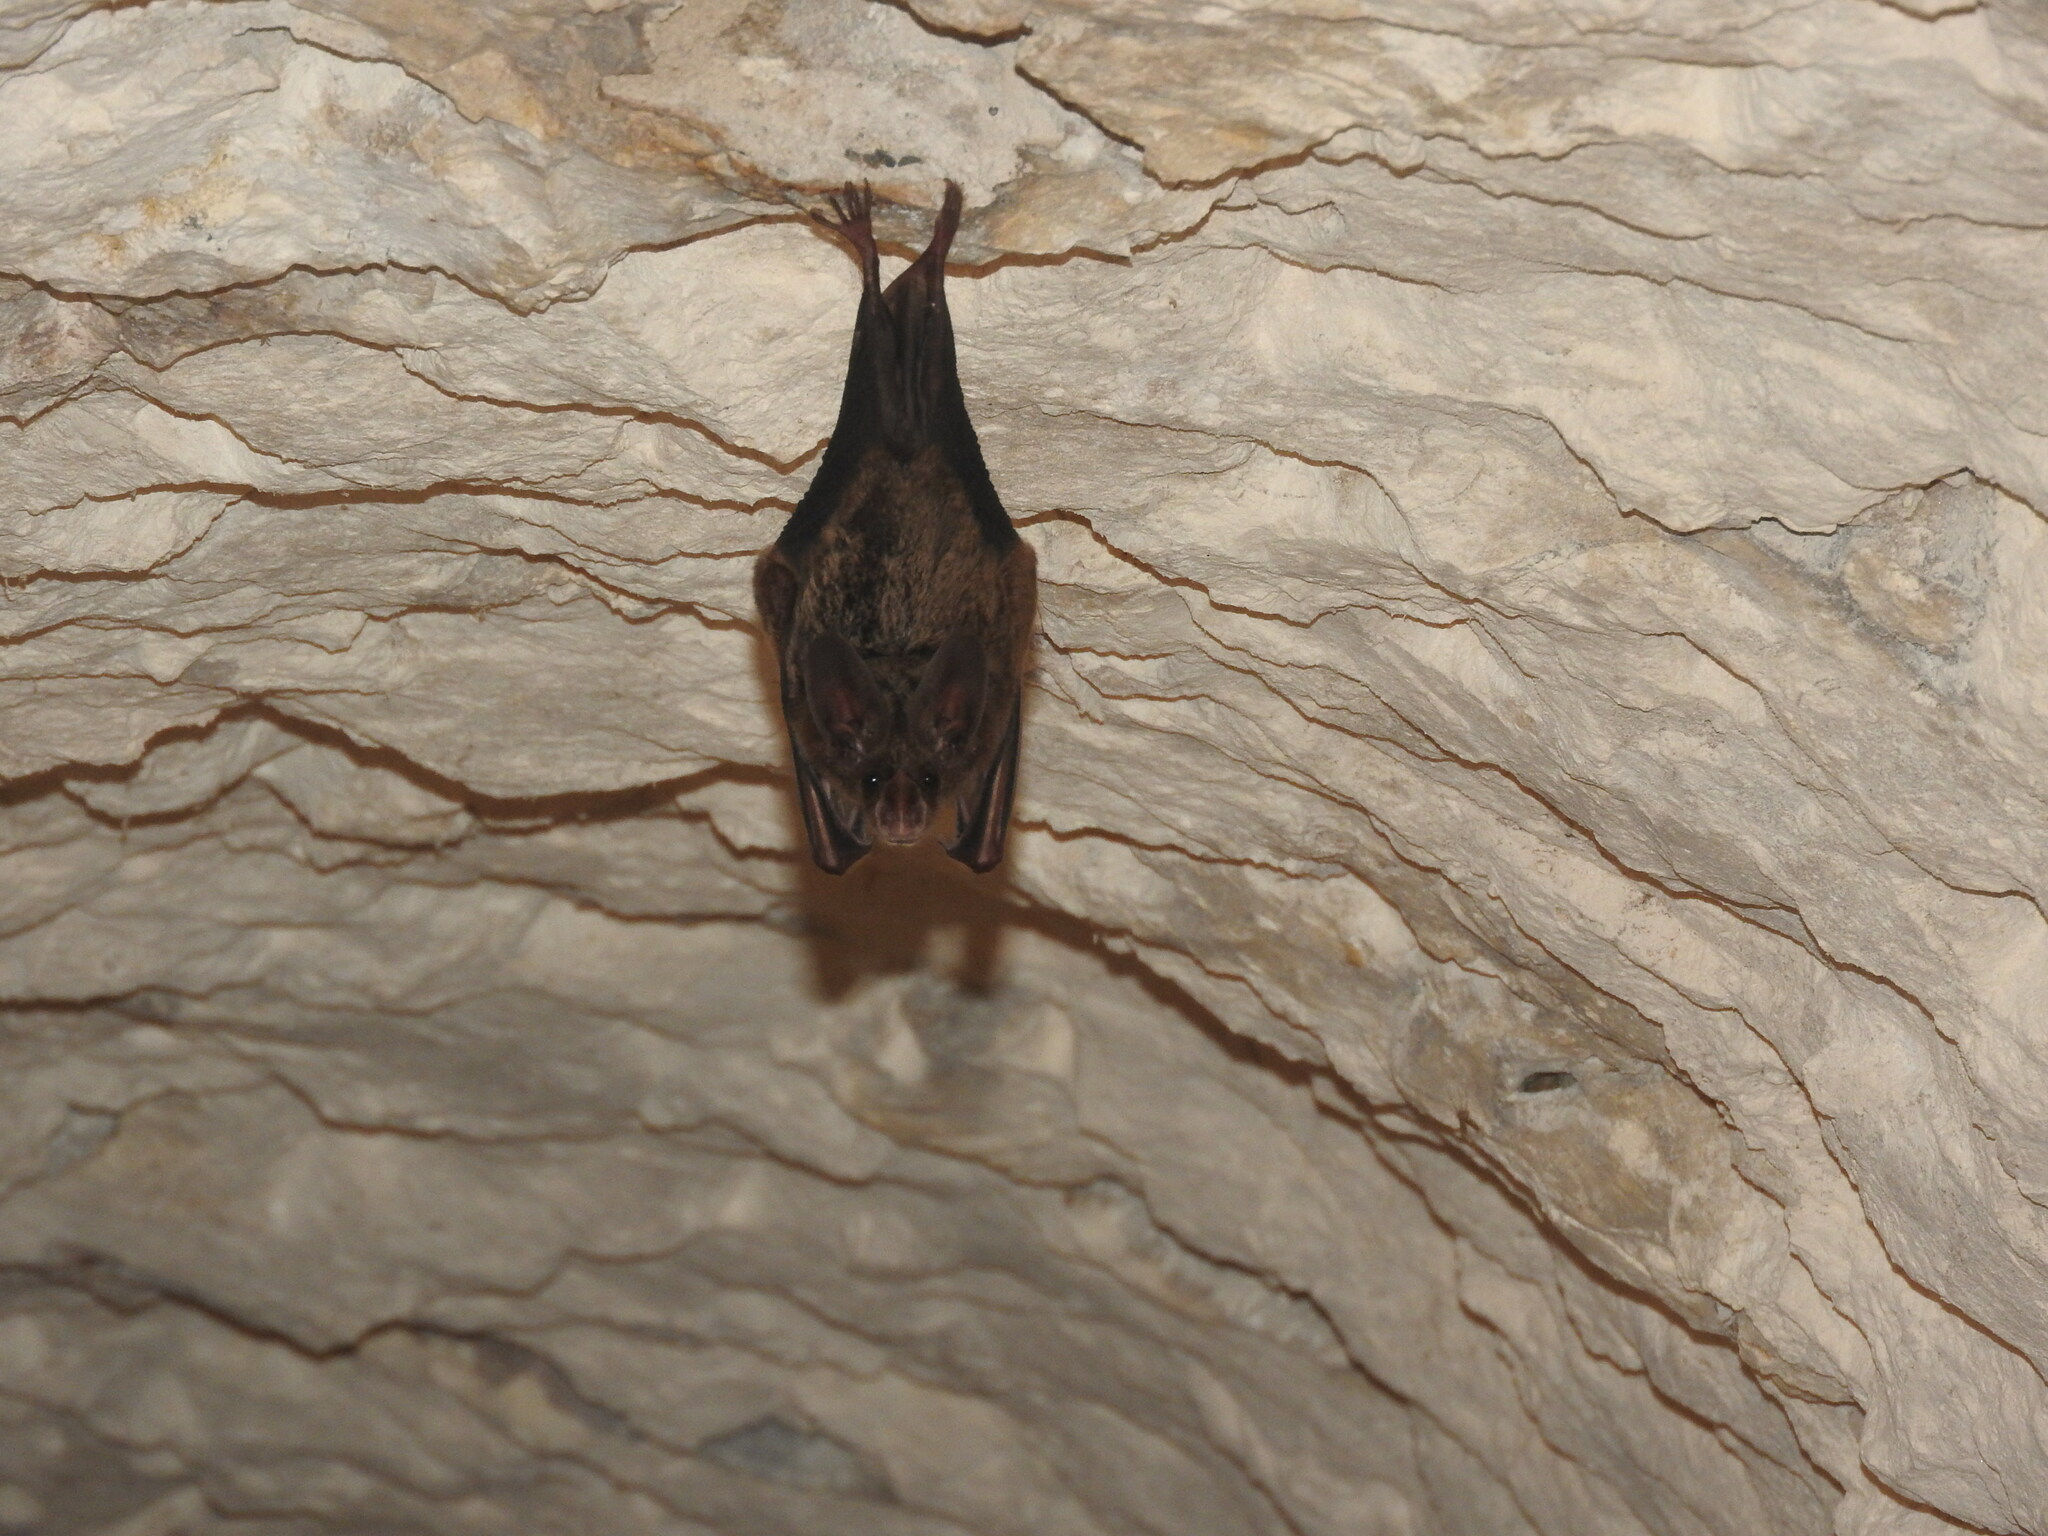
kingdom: Animalia
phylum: Chordata
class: Mammalia
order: Chiroptera
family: Phyllostomidae
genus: Mimon
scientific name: Mimon cozumelae
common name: Cozumelan golden bat
